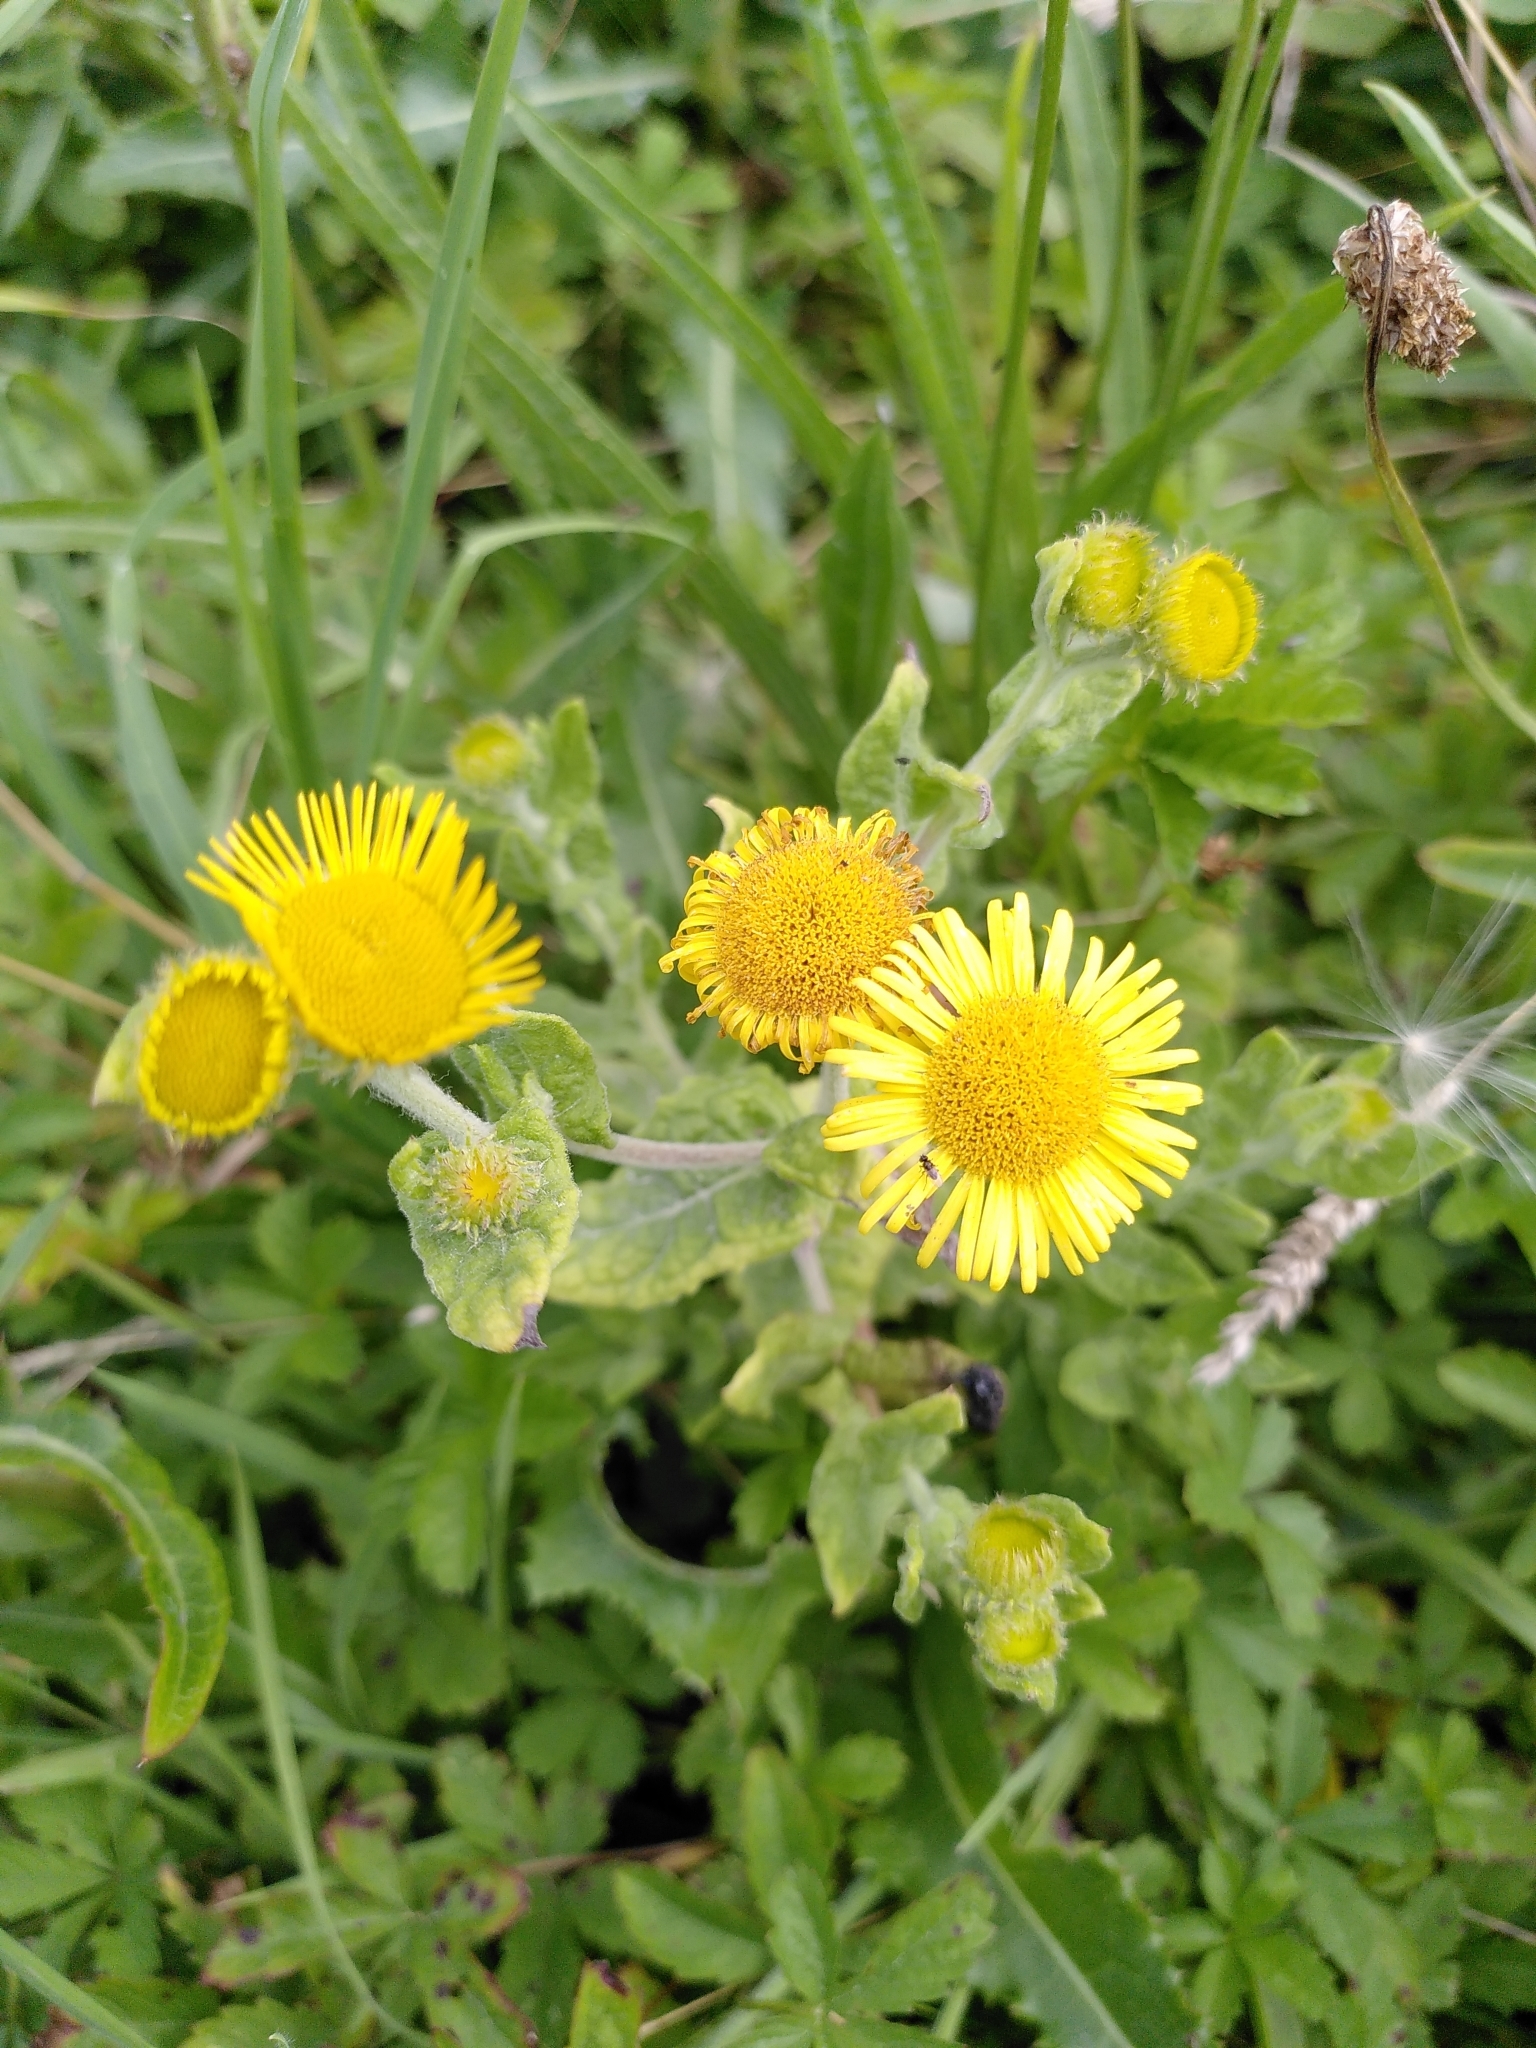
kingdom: Plantae
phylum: Tracheophyta
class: Magnoliopsida
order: Asterales
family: Asteraceae
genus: Pulicaria
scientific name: Pulicaria dysenterica
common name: Common fleabane
